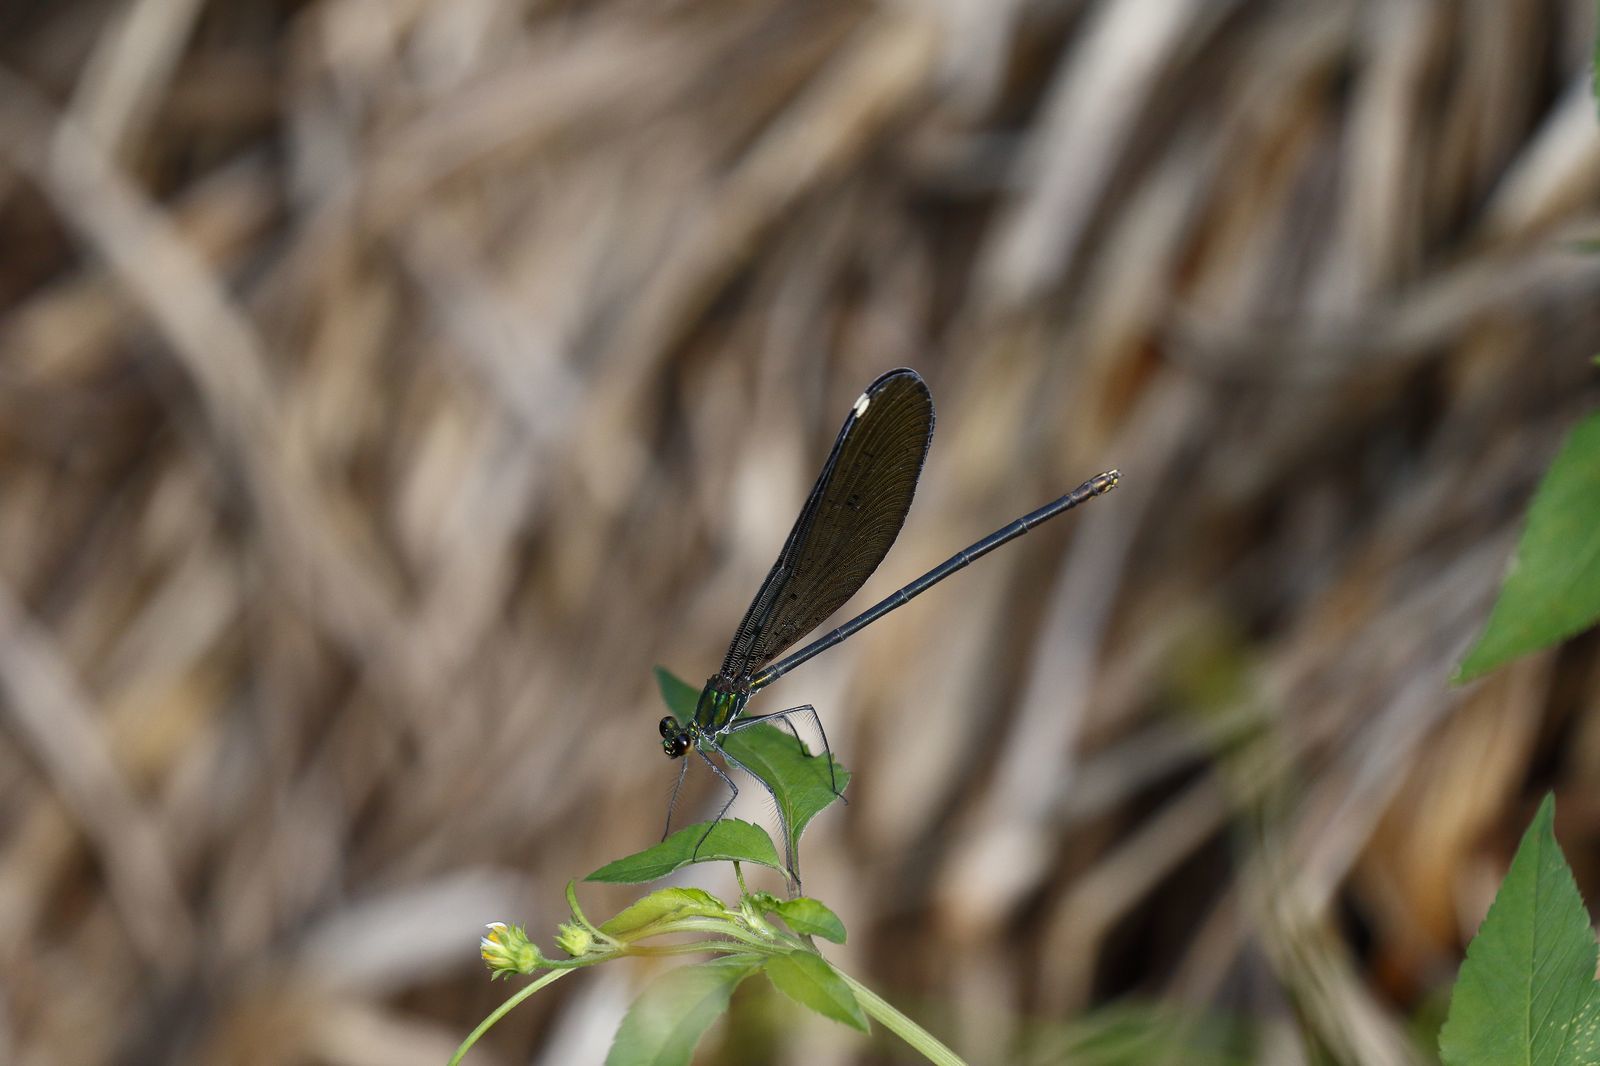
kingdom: Animalia
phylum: Arthropoda
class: Insecta
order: Odonata
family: Calopterygidae
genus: Matrona
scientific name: Matrona cyanoptera
